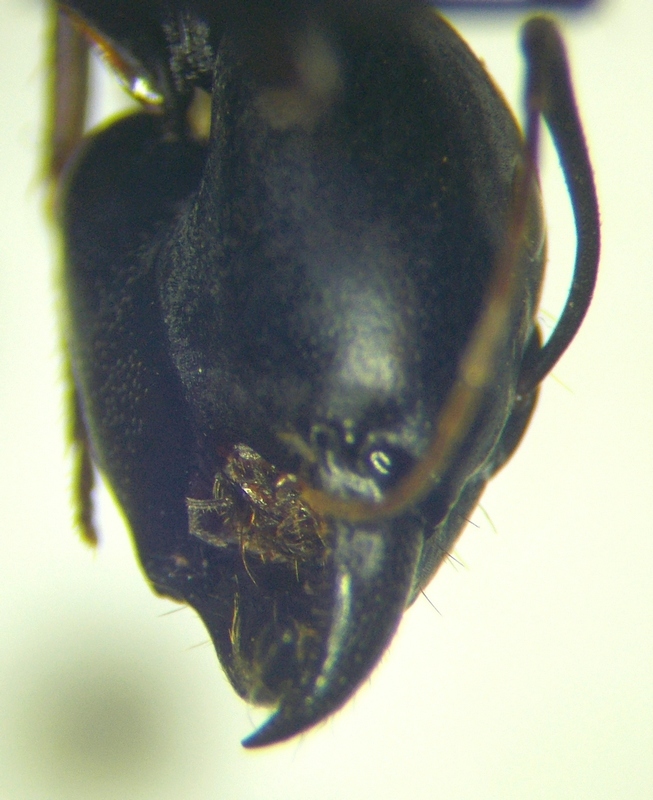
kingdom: Animalia
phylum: Arthropoda
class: Insecta
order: Hymenoptera
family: Formicidae
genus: Camponotus
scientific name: Camponotus sanctus
